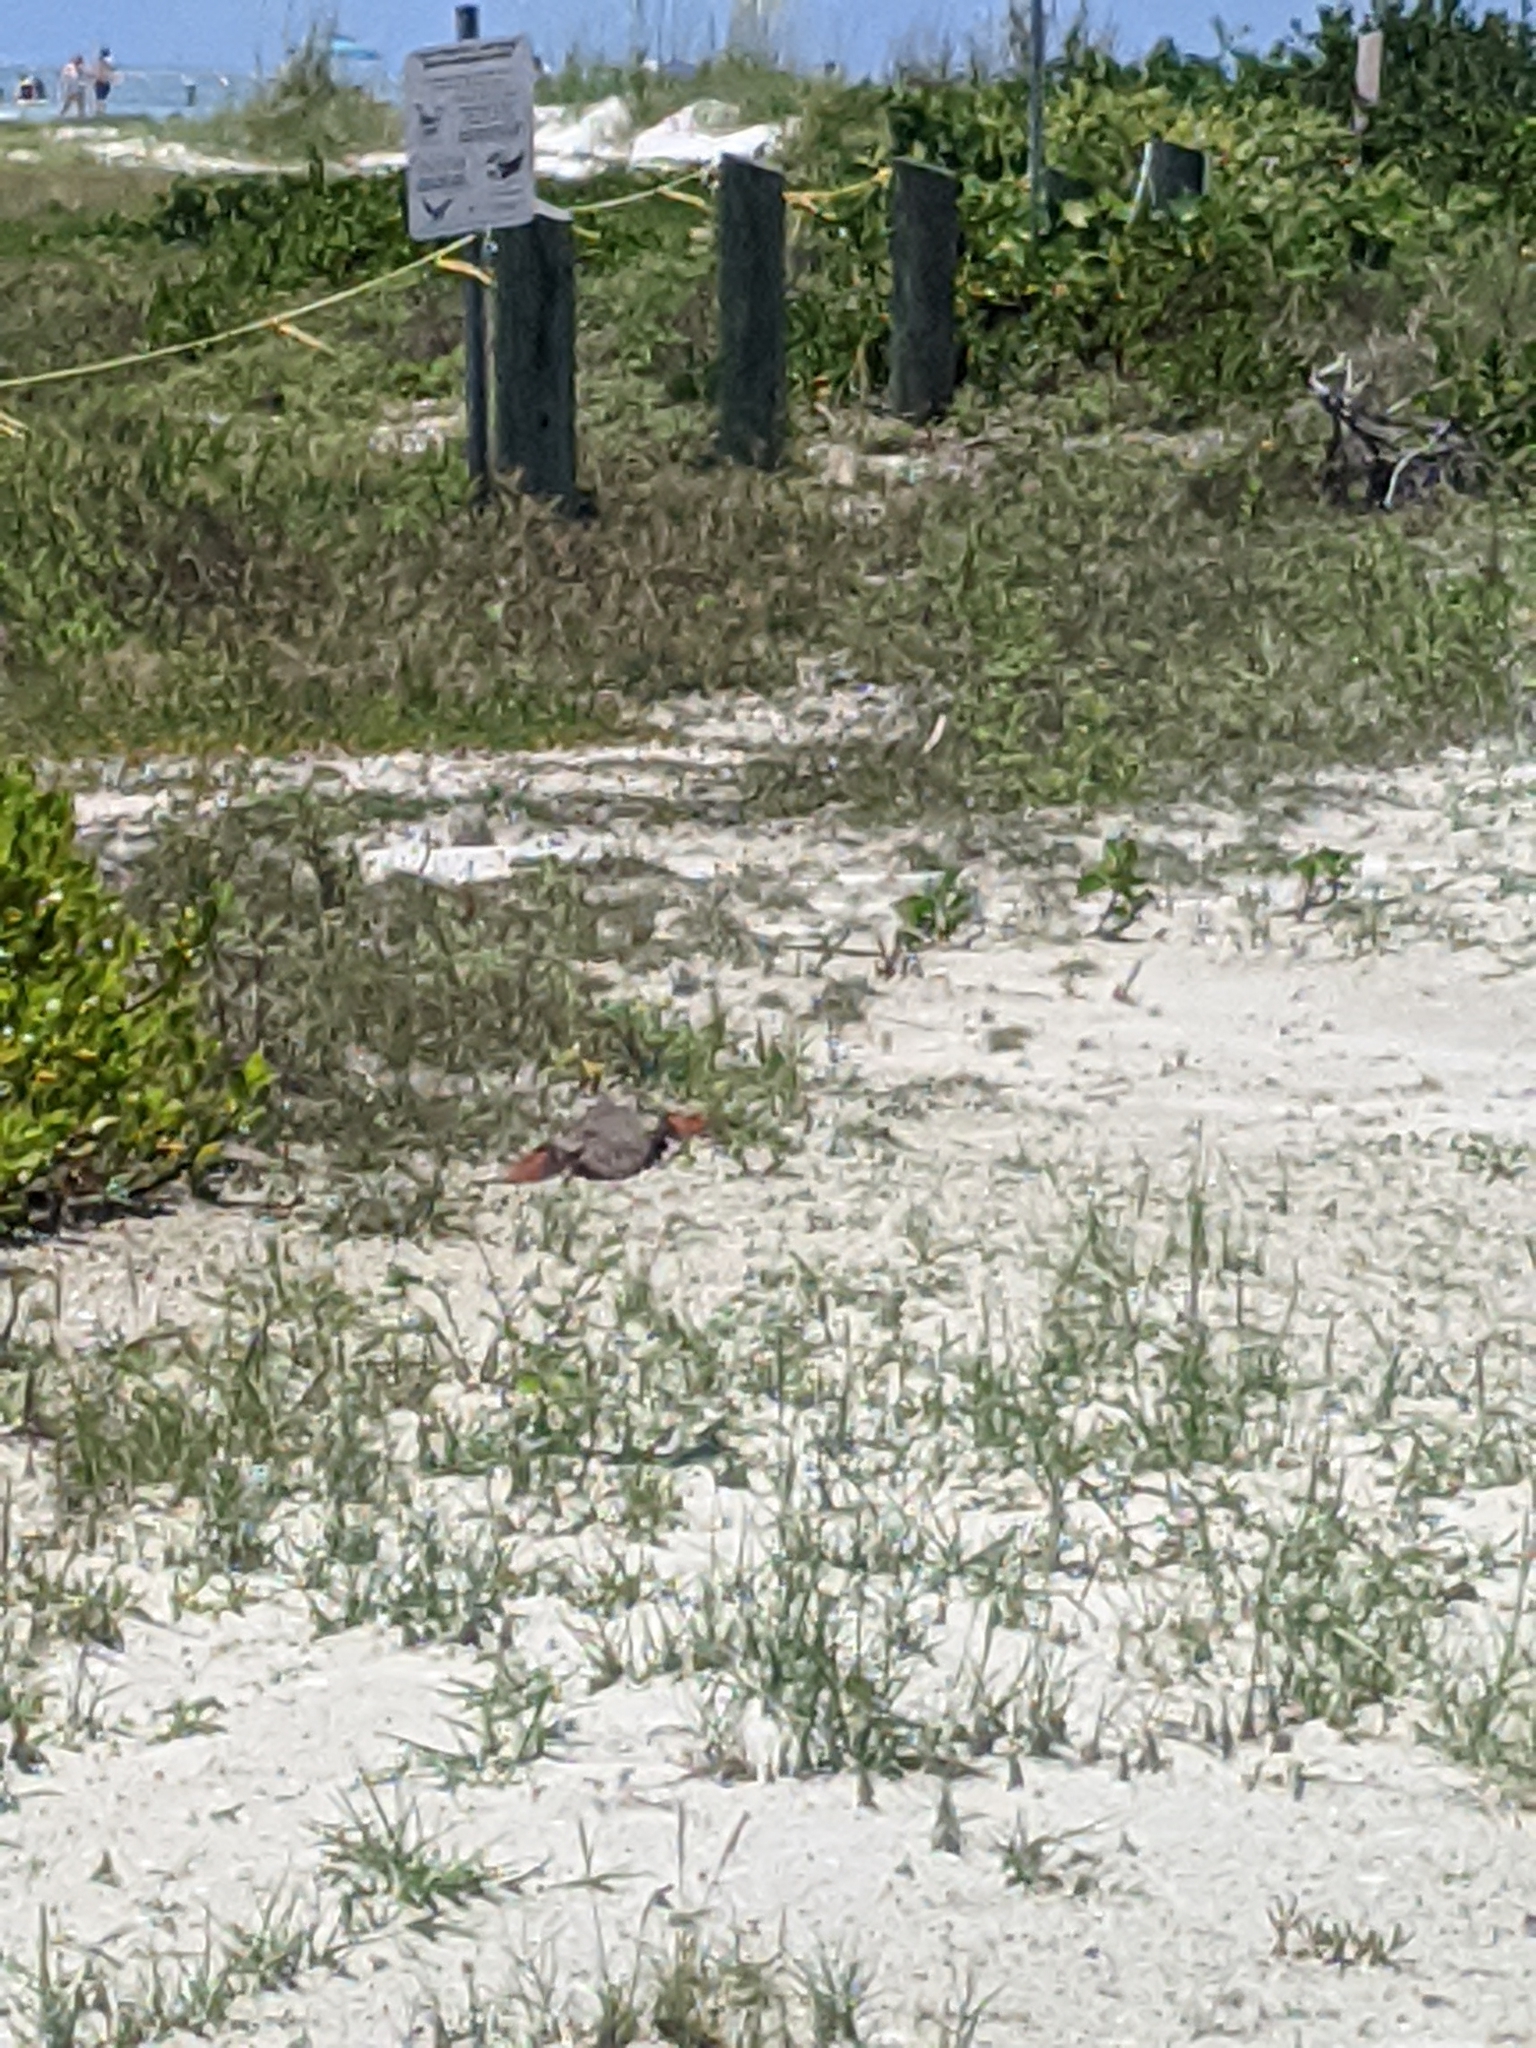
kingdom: Animalia
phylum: Chordata
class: Aves
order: Columbiformes
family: Columbidae
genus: Columbina
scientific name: Columbina passerina
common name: Common ground-dove
